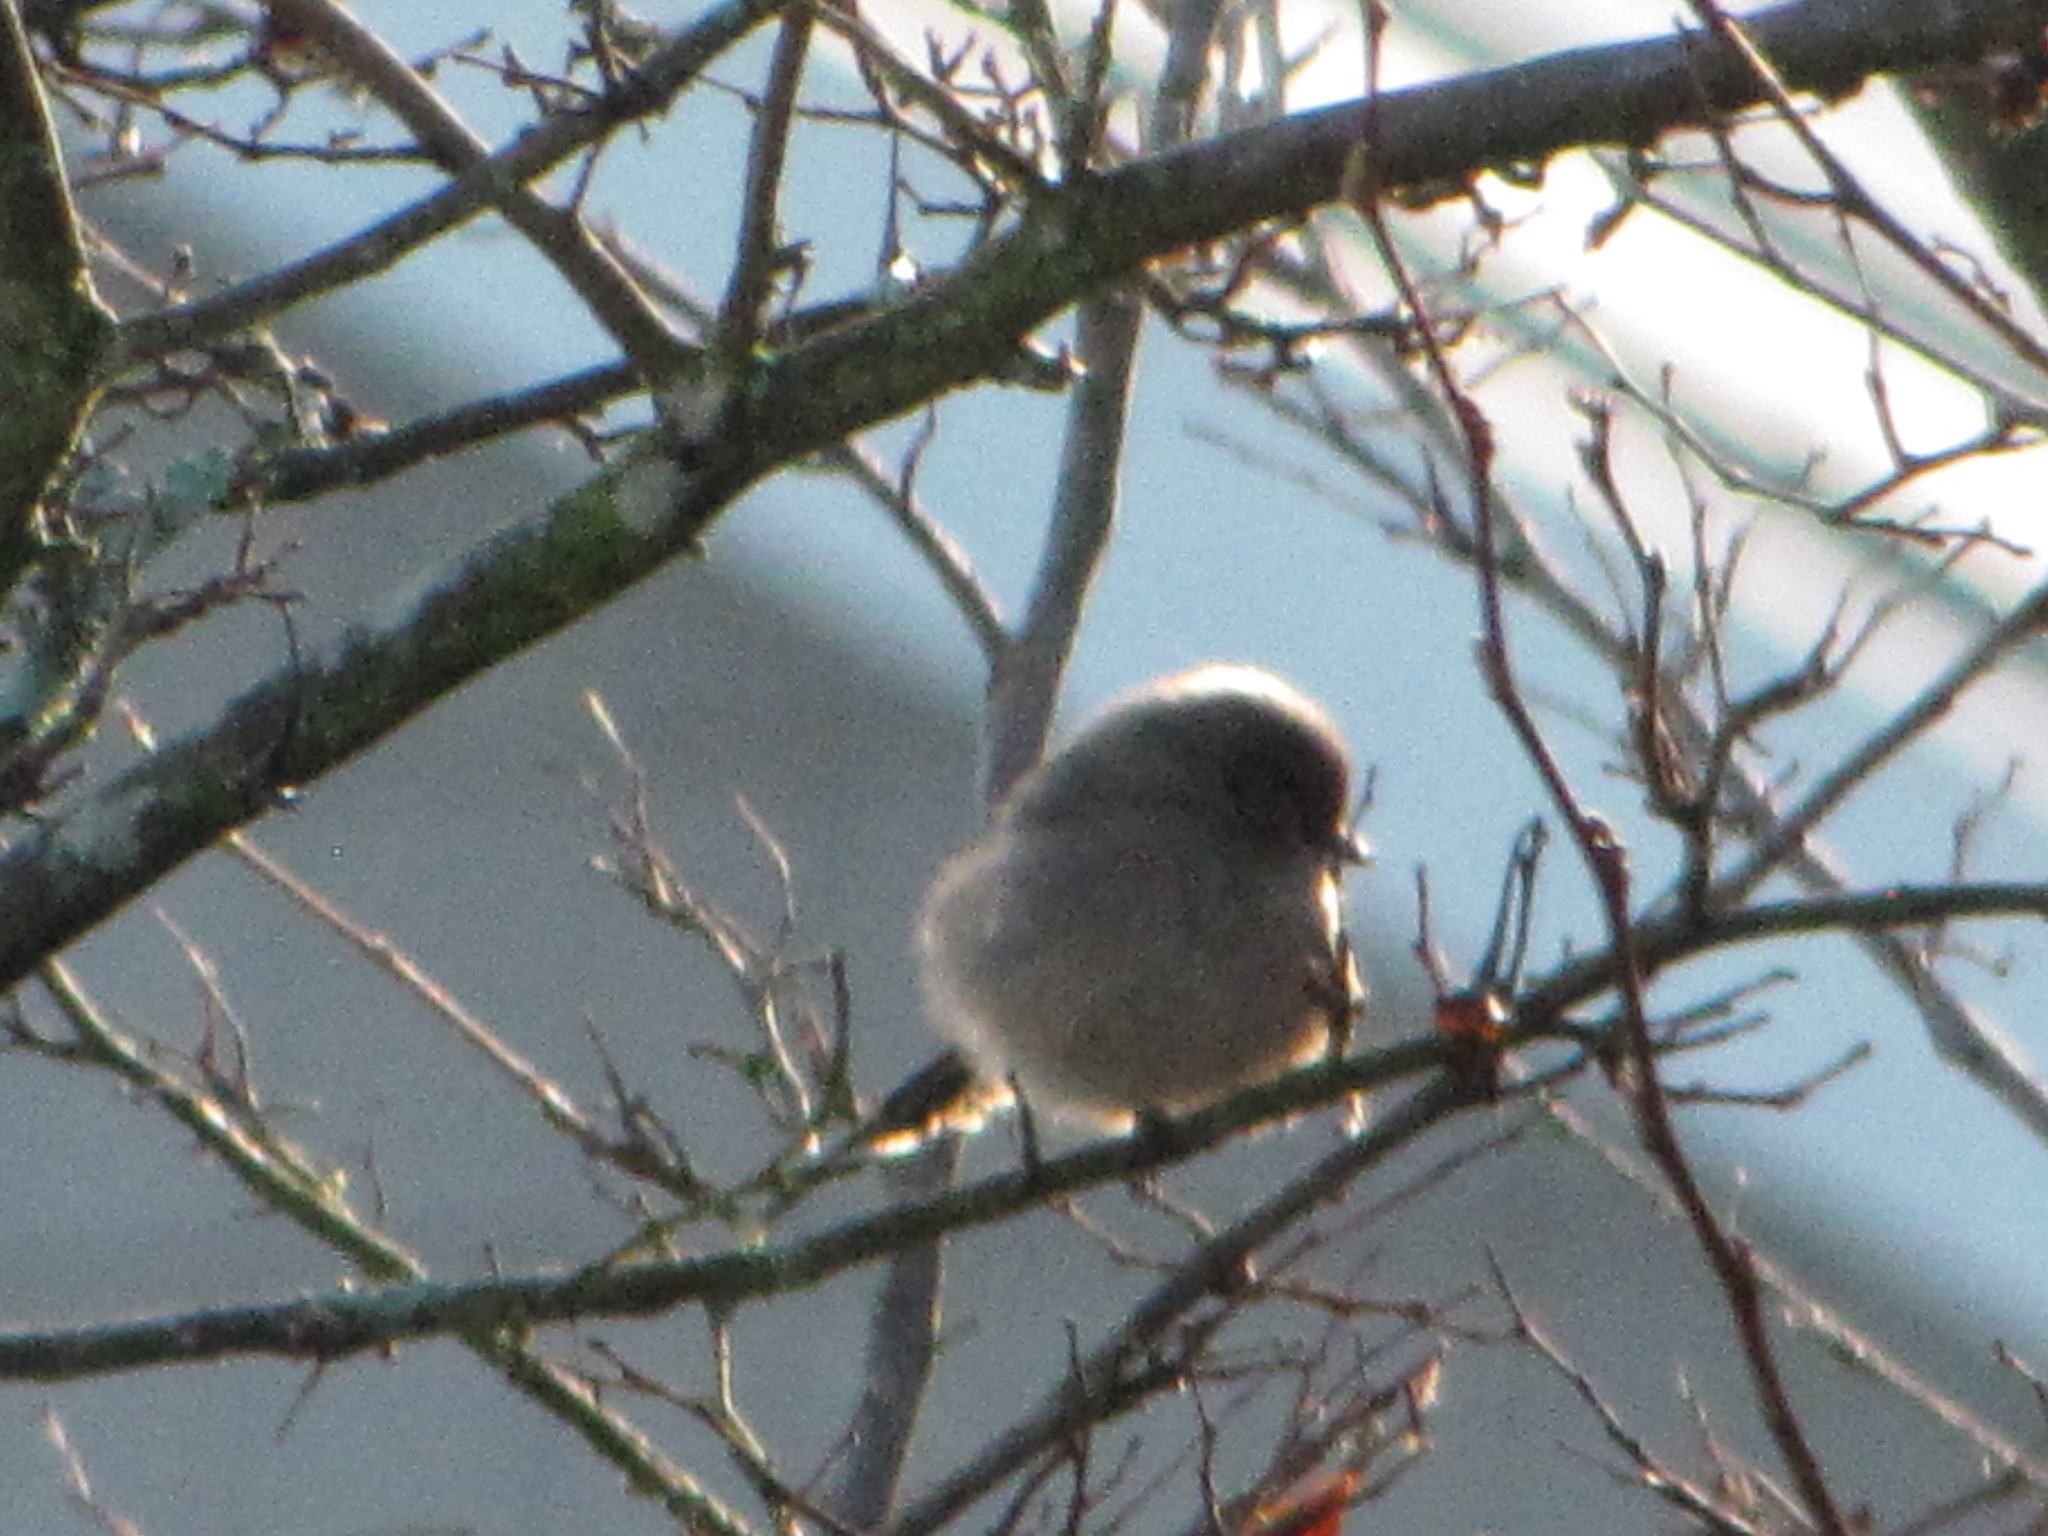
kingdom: Animalia
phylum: Chordata
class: Aves
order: Passeriformes
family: Aegithalidae
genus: Psaltriparus
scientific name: Psaltriparus minimus
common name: American bushtit
